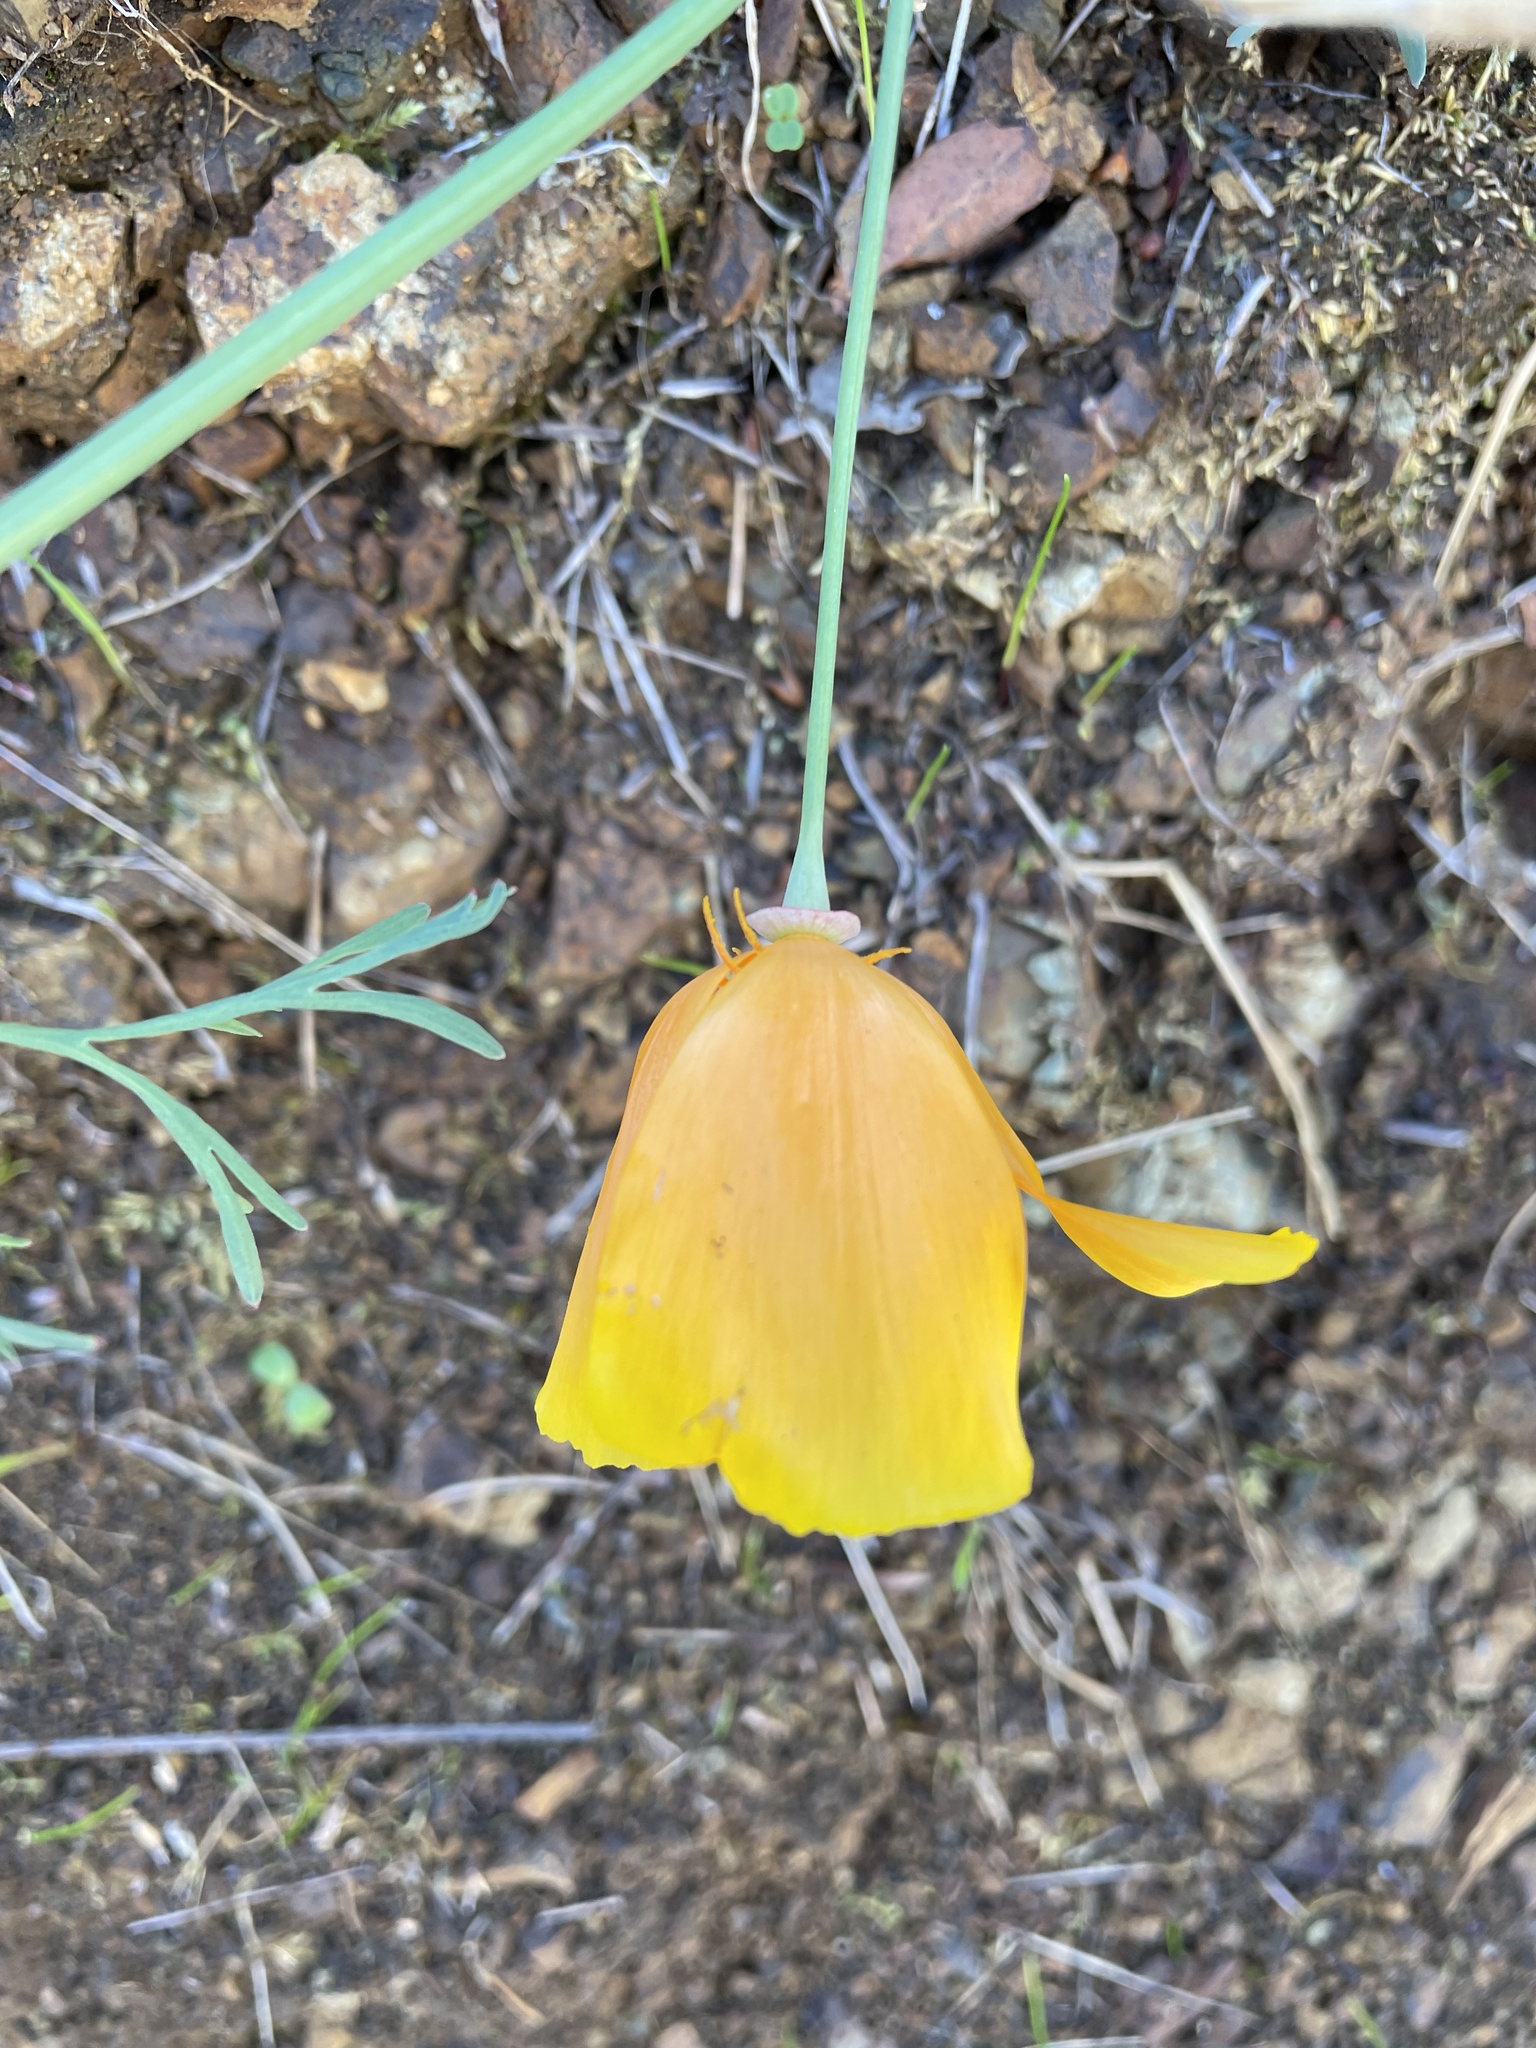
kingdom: Plantae
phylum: Tracheophyta
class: Magnoliopsida
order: Ranunculales
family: Papaveraceae
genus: Eschscholzia
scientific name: Eschscholzia californica
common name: California poppy
